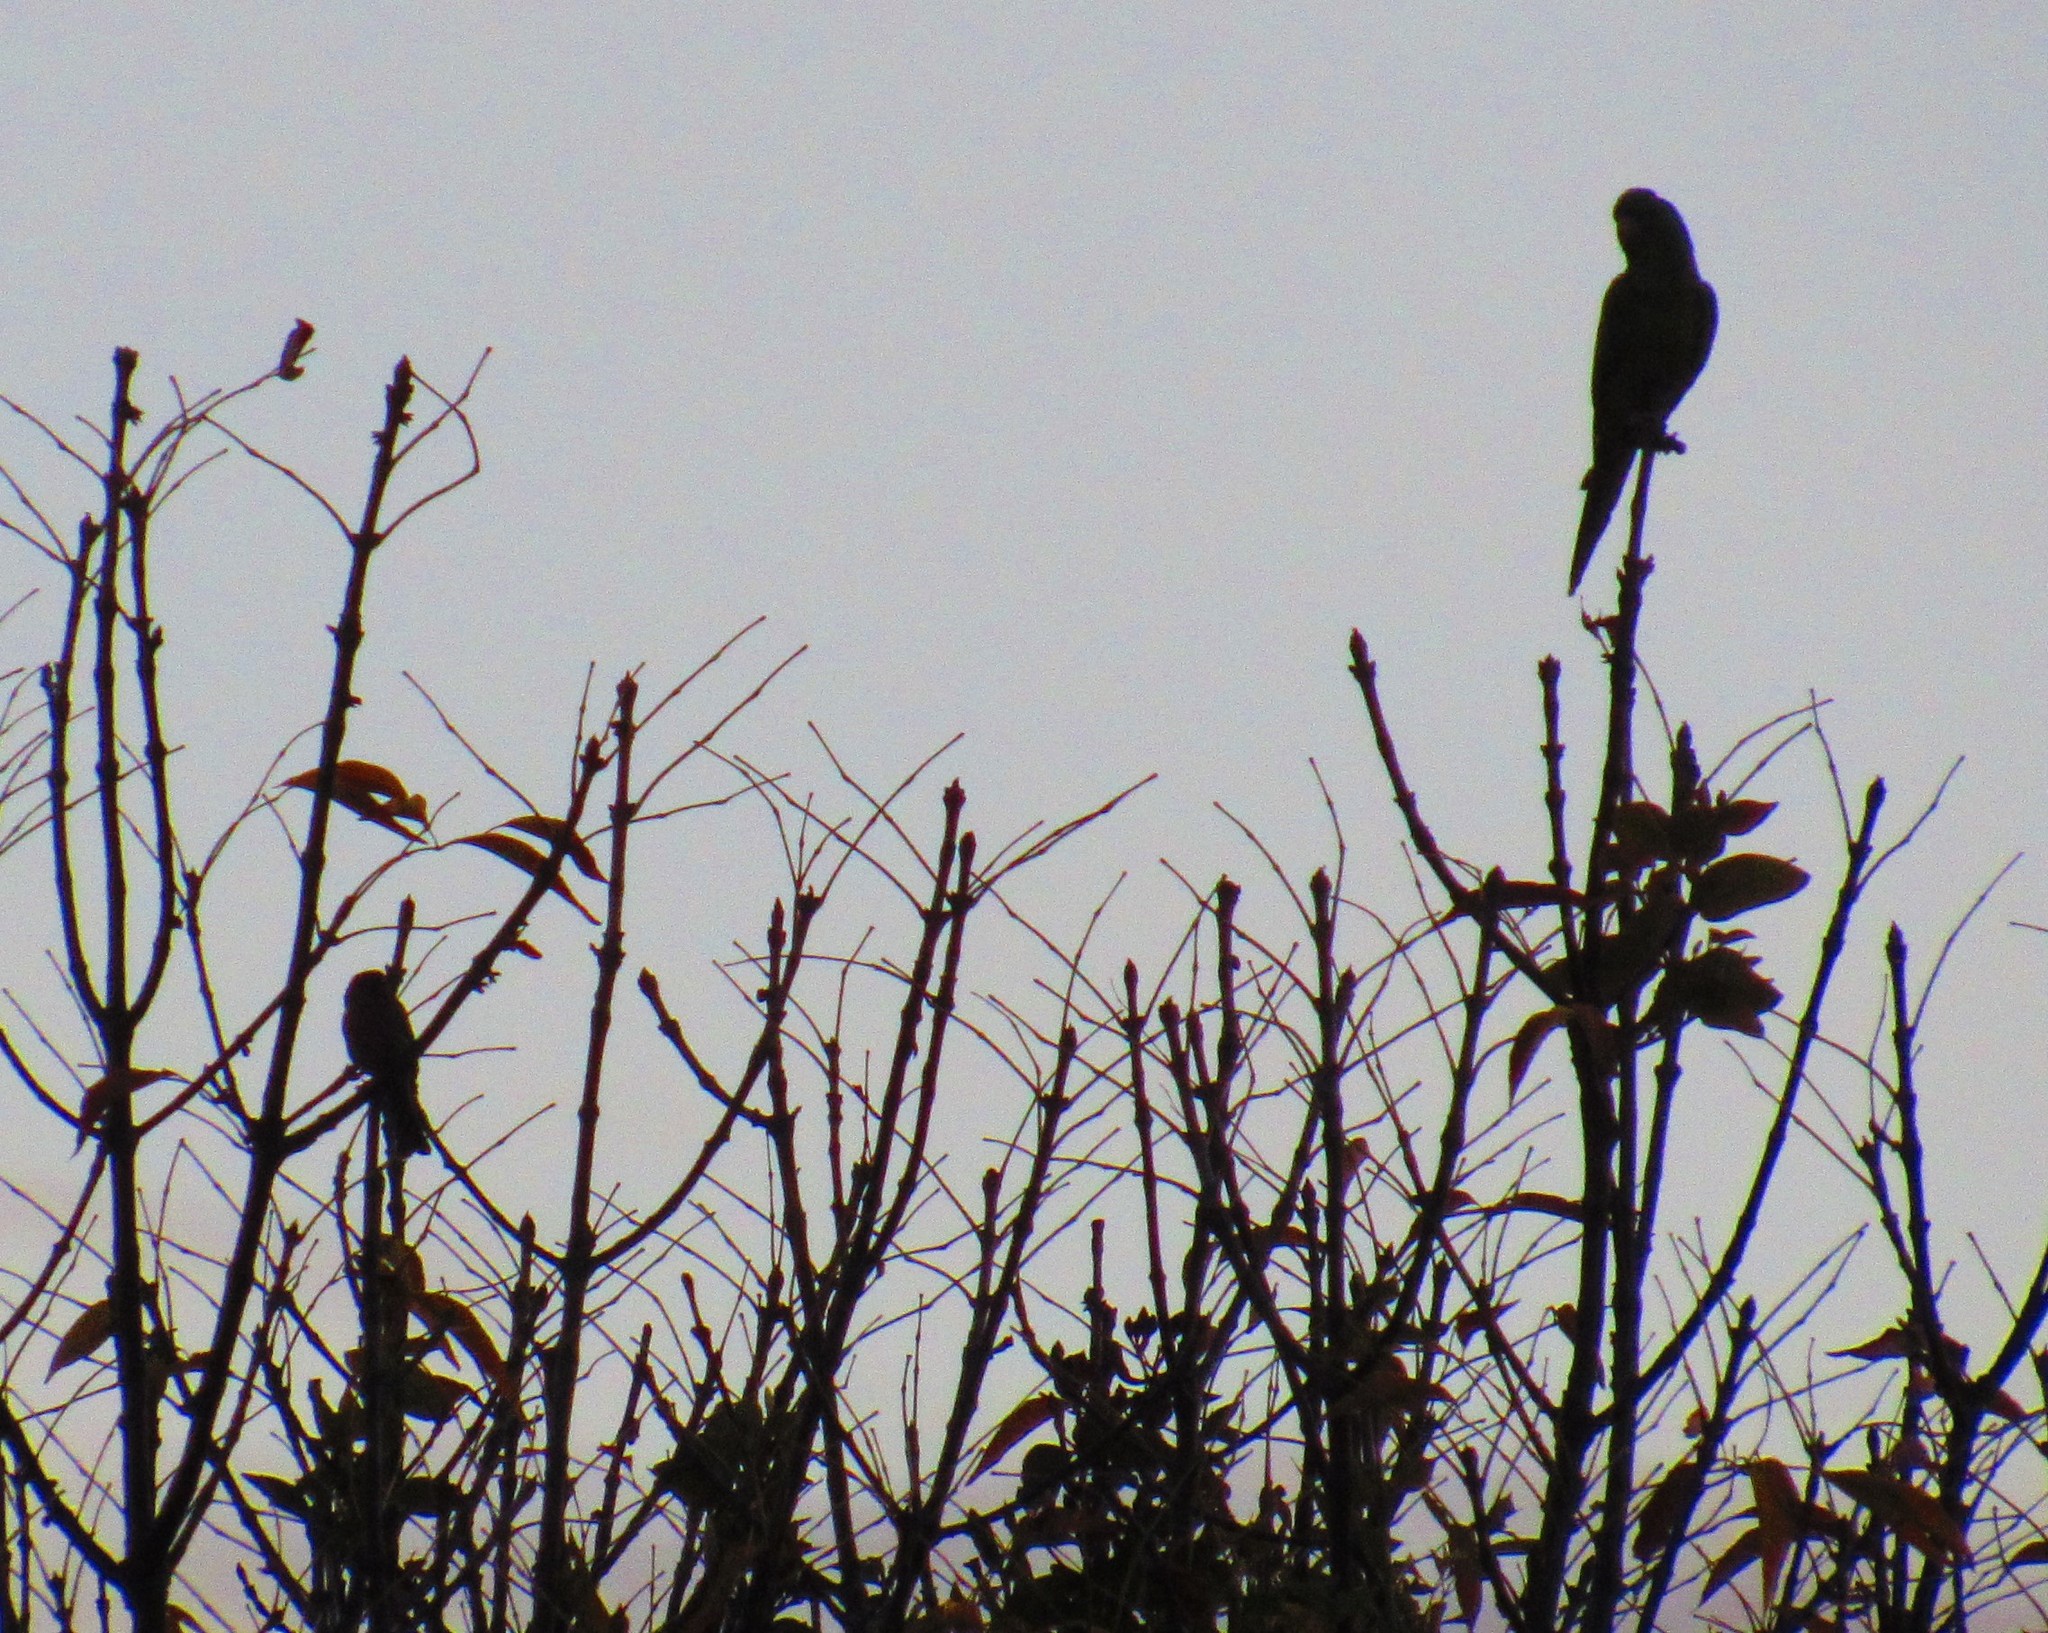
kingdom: Animalia
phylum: Chordata
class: Aves
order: Psittaciformes
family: Psittacidae
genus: Psittacara
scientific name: Psittacara
